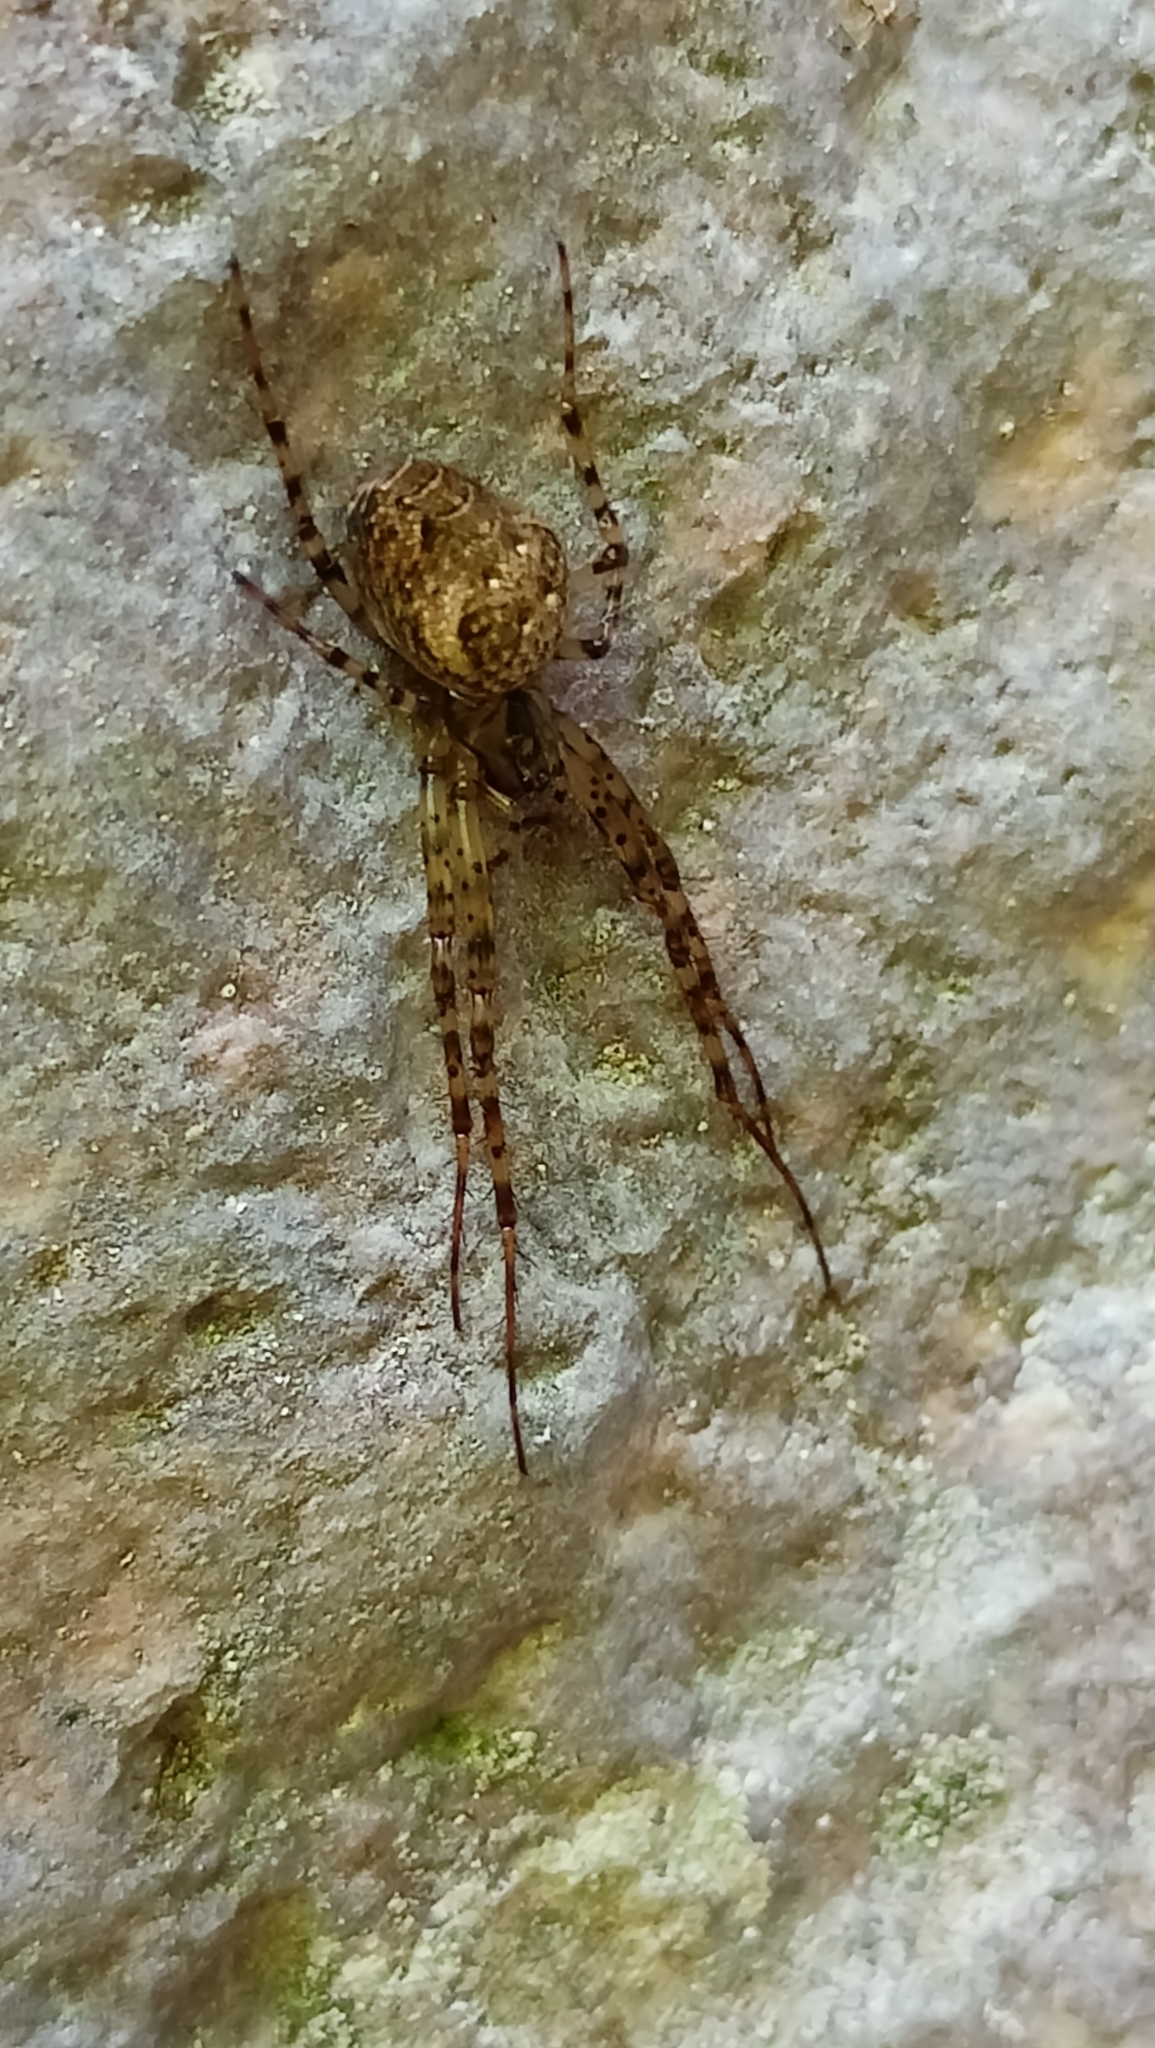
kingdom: Animalia
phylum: Arthropoda
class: Arachnida
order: Araneae
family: Tetragnathidae
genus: Metellina
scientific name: Metellina merianae
